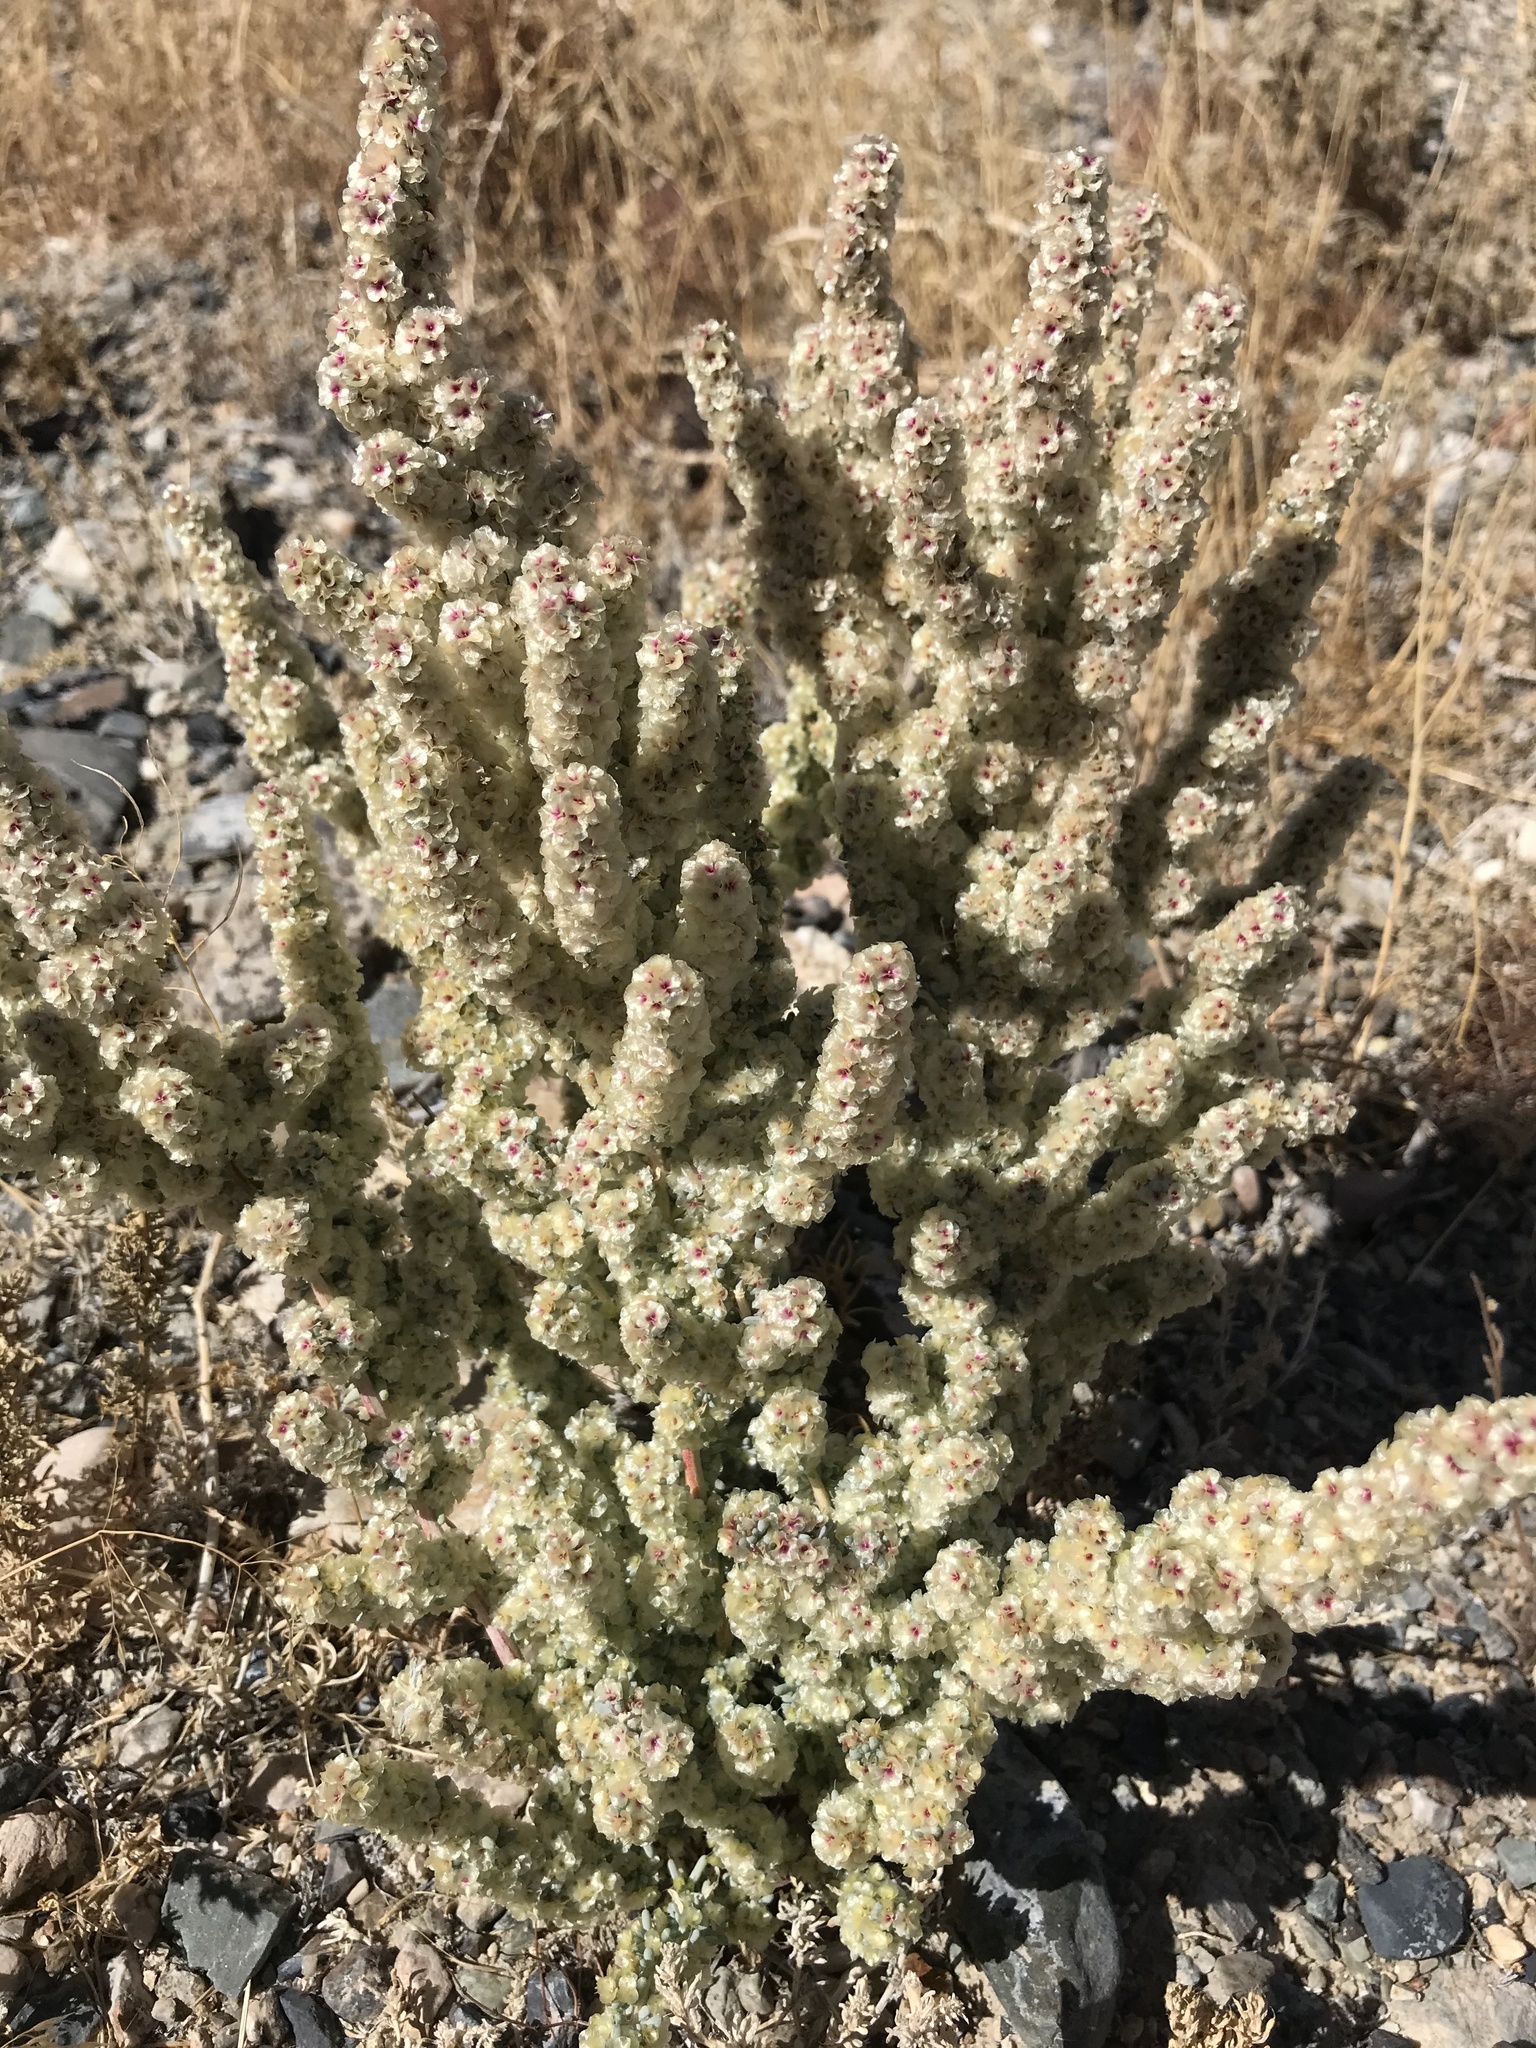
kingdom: Plantae
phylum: Tracheophyta
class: Magnoliopsida
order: Caryophyllales
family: Amaranthaceae
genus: Halogeton
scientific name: Halogeton glomeratus
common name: Saltlover
